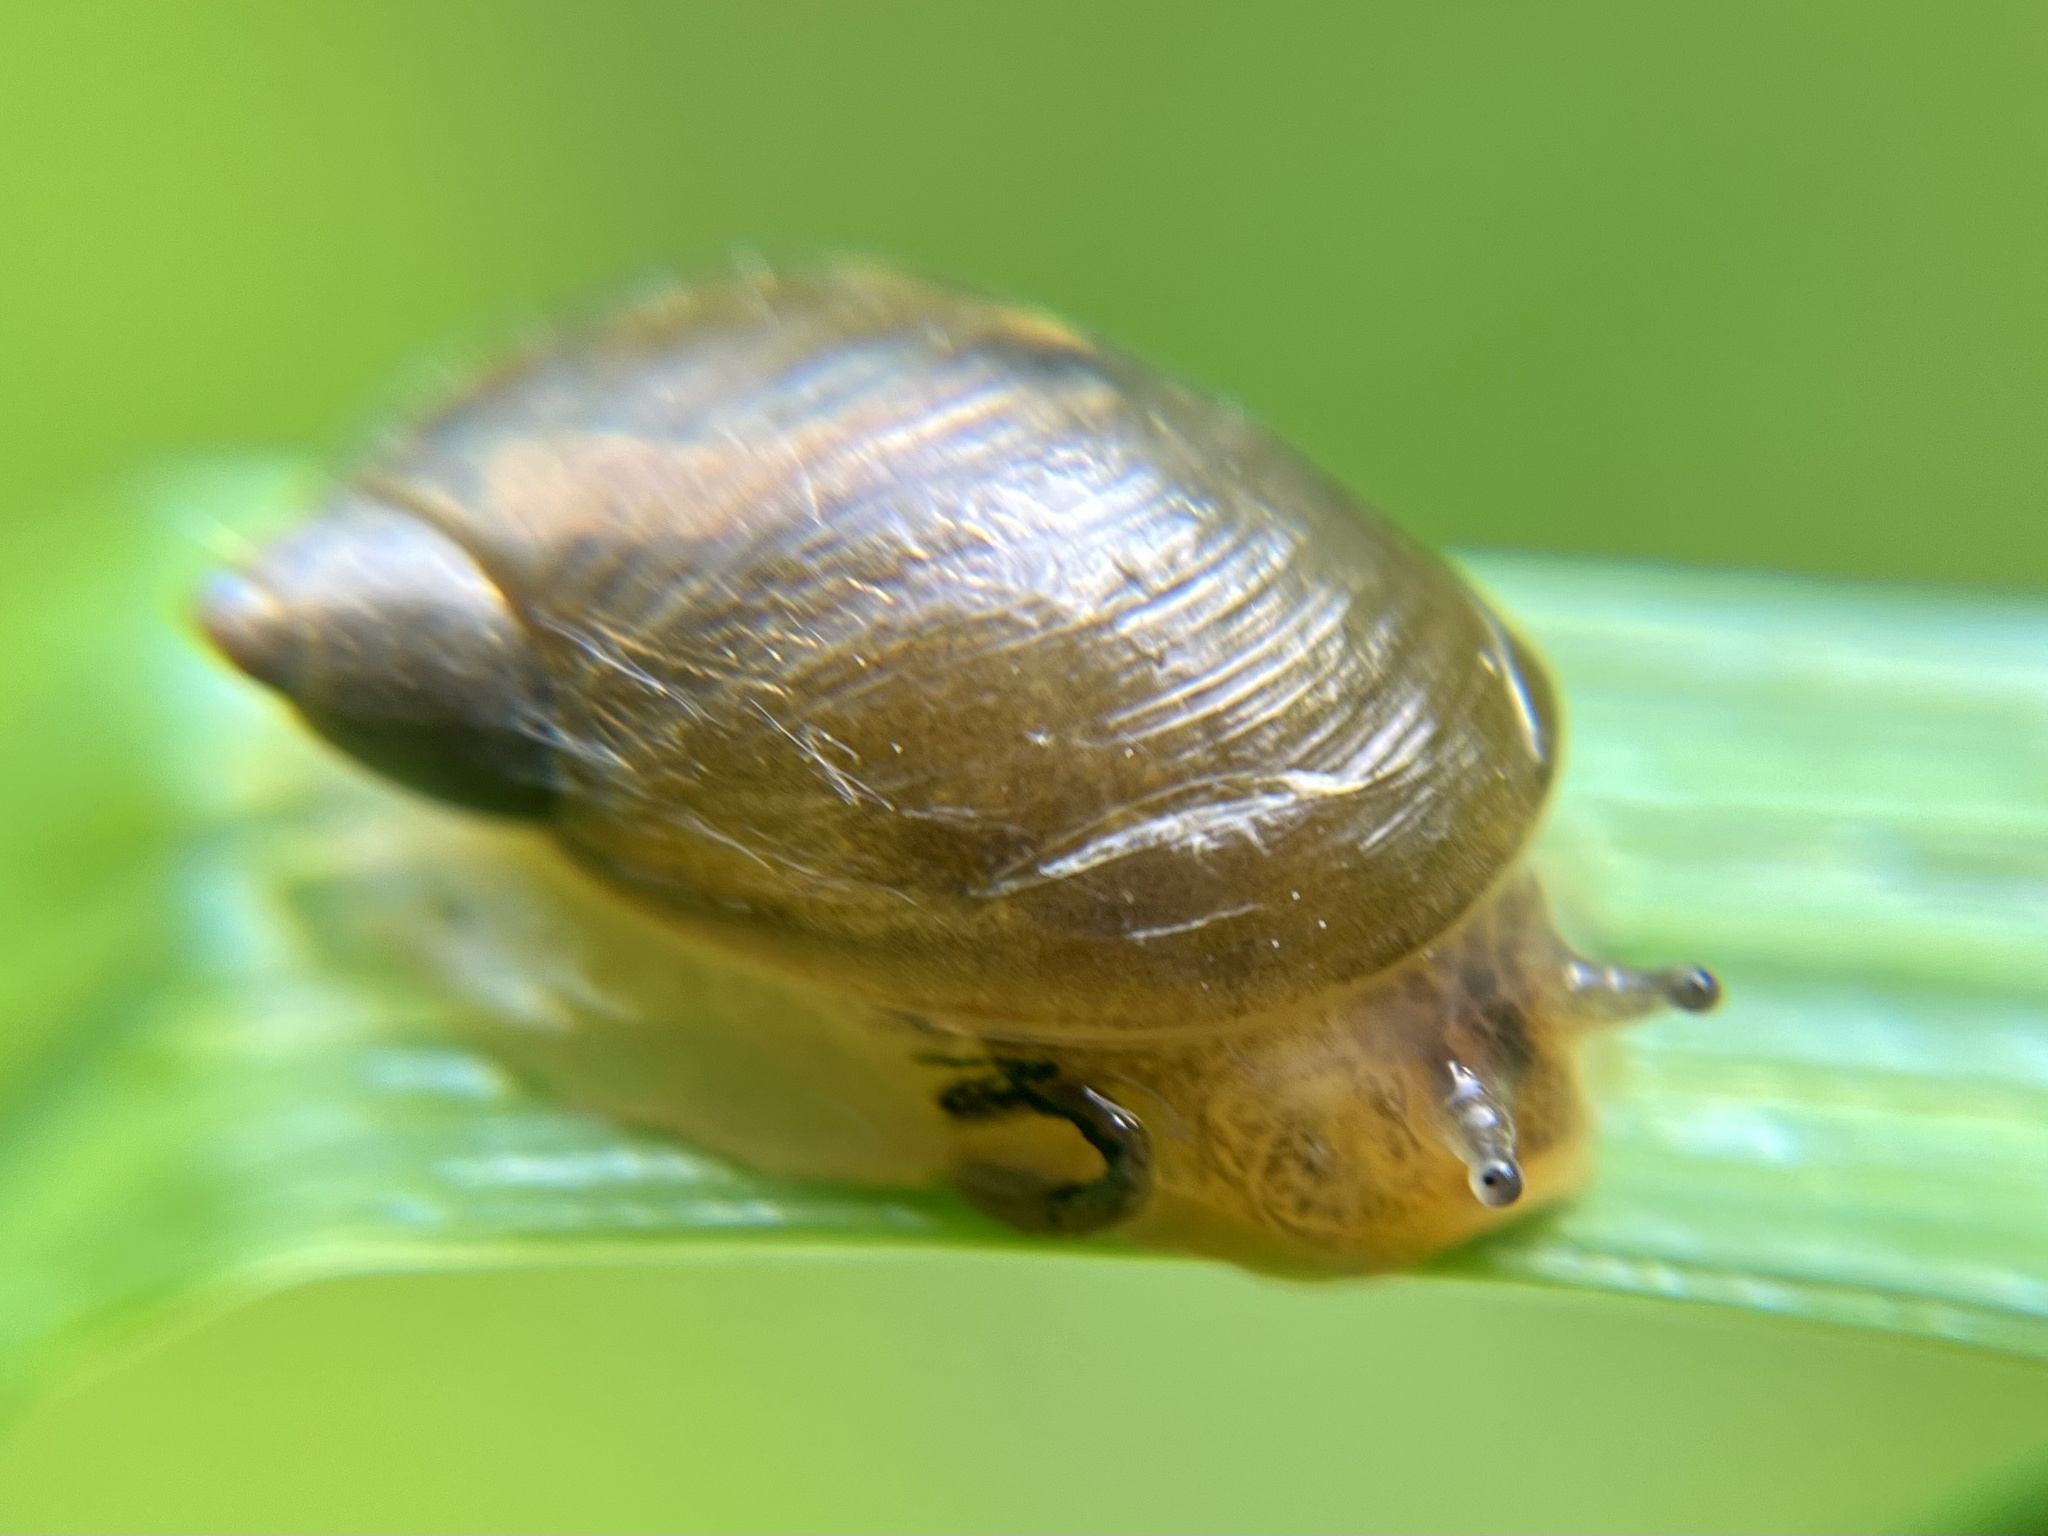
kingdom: Animalia
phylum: Mollusca
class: Gastropoda
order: Stylommatophora
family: Succineidae
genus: Succinea
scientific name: Succinea putris
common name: European ambersnail
